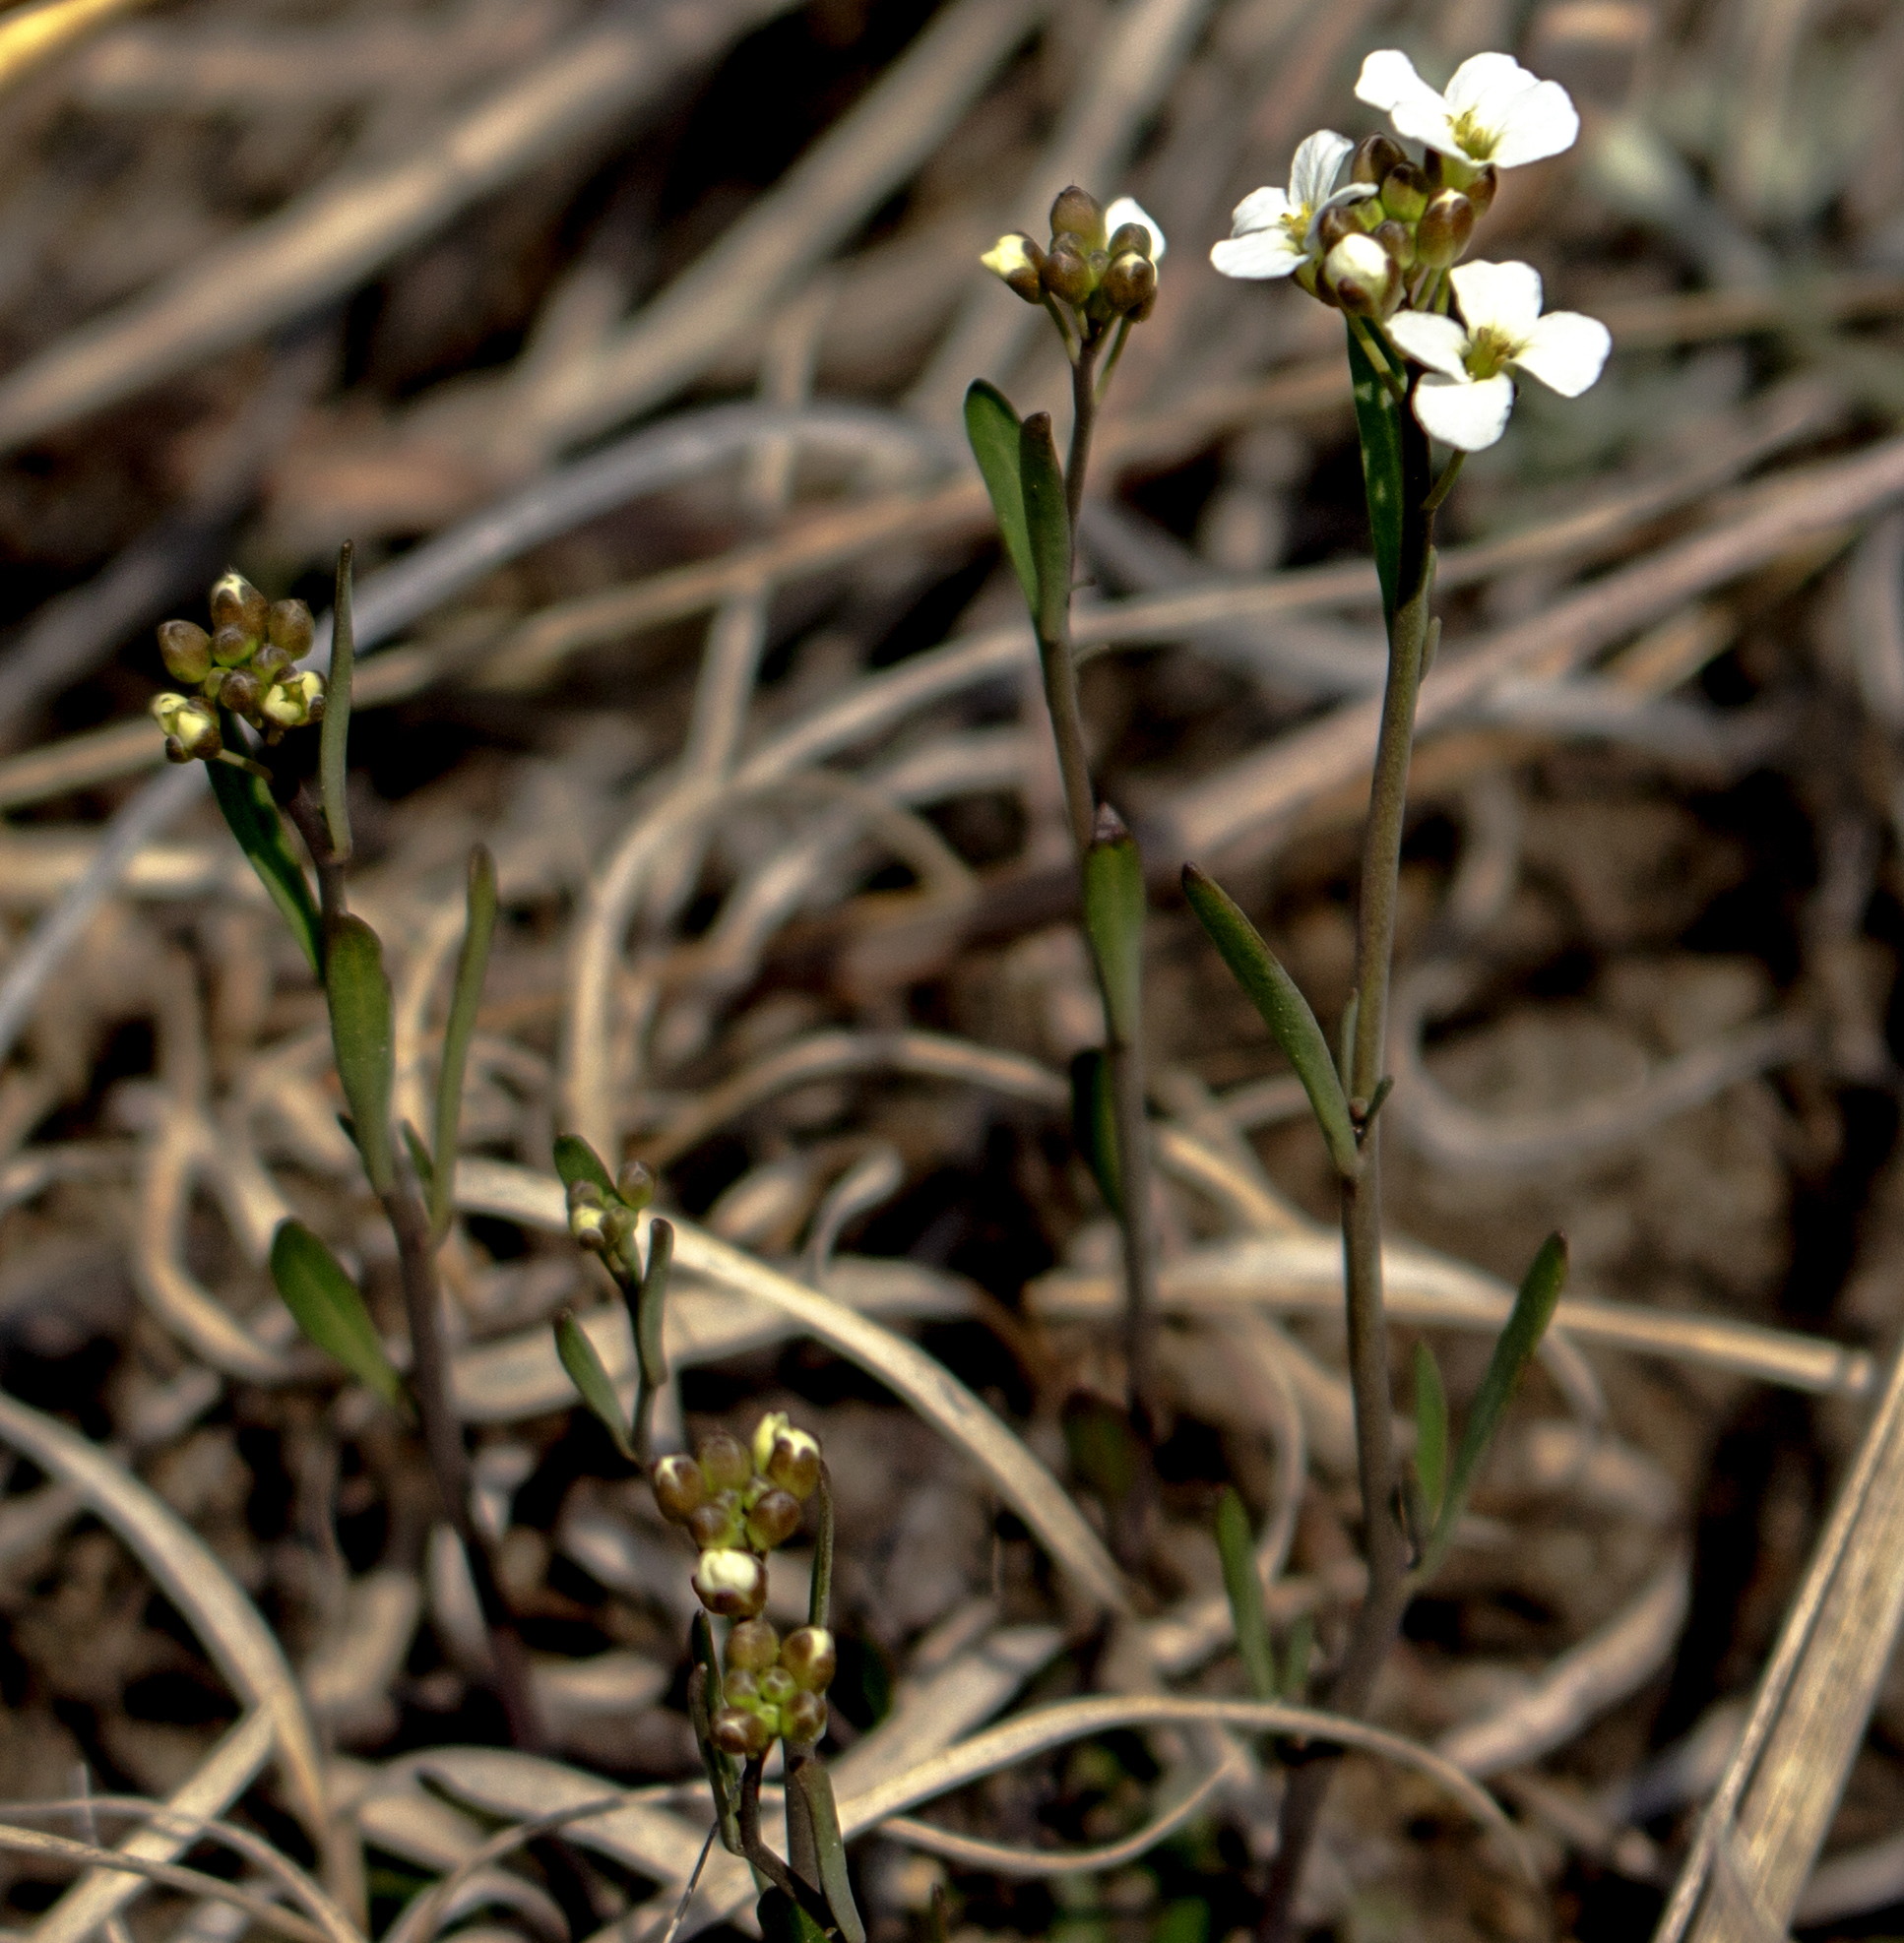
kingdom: Plantae
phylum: Tracheophyta
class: Magnoliopsida
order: Brassicales
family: Brassicaceae
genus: Arabidopsis
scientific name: Arabidopsis lyrata
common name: Lyrate rockcress
